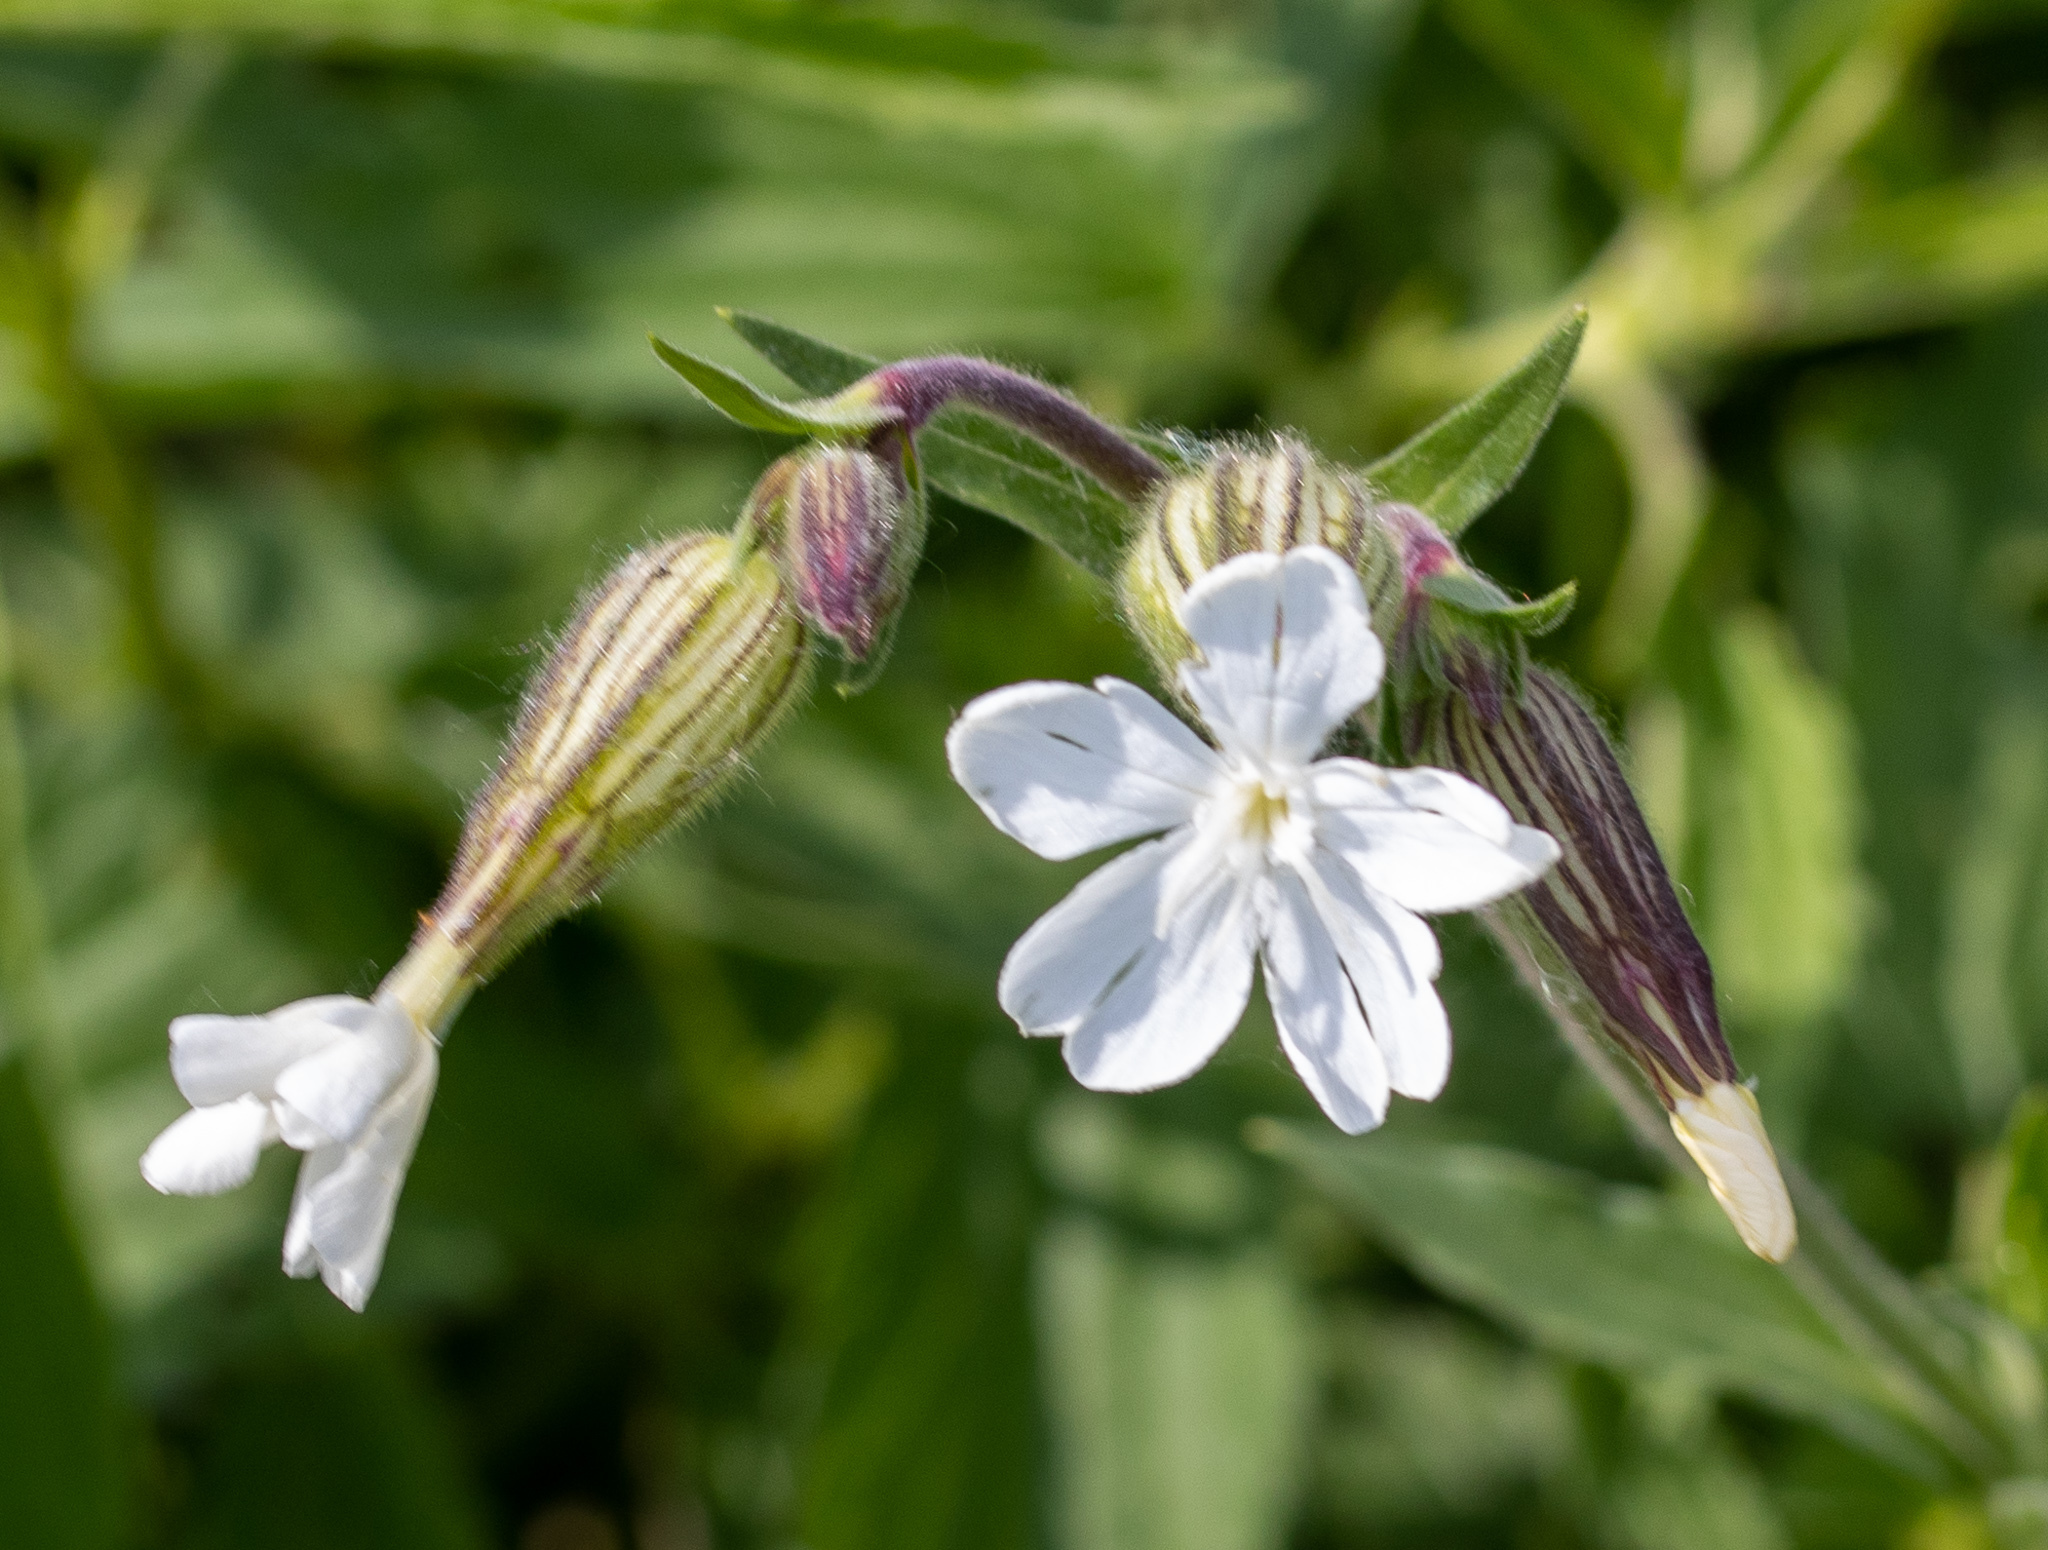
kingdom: Plantae
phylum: Tracheophyta
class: Magnoliopsida
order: Caryophyllales
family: Caryophyllaceae
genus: Silene
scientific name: Silene latifolia
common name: White campion
